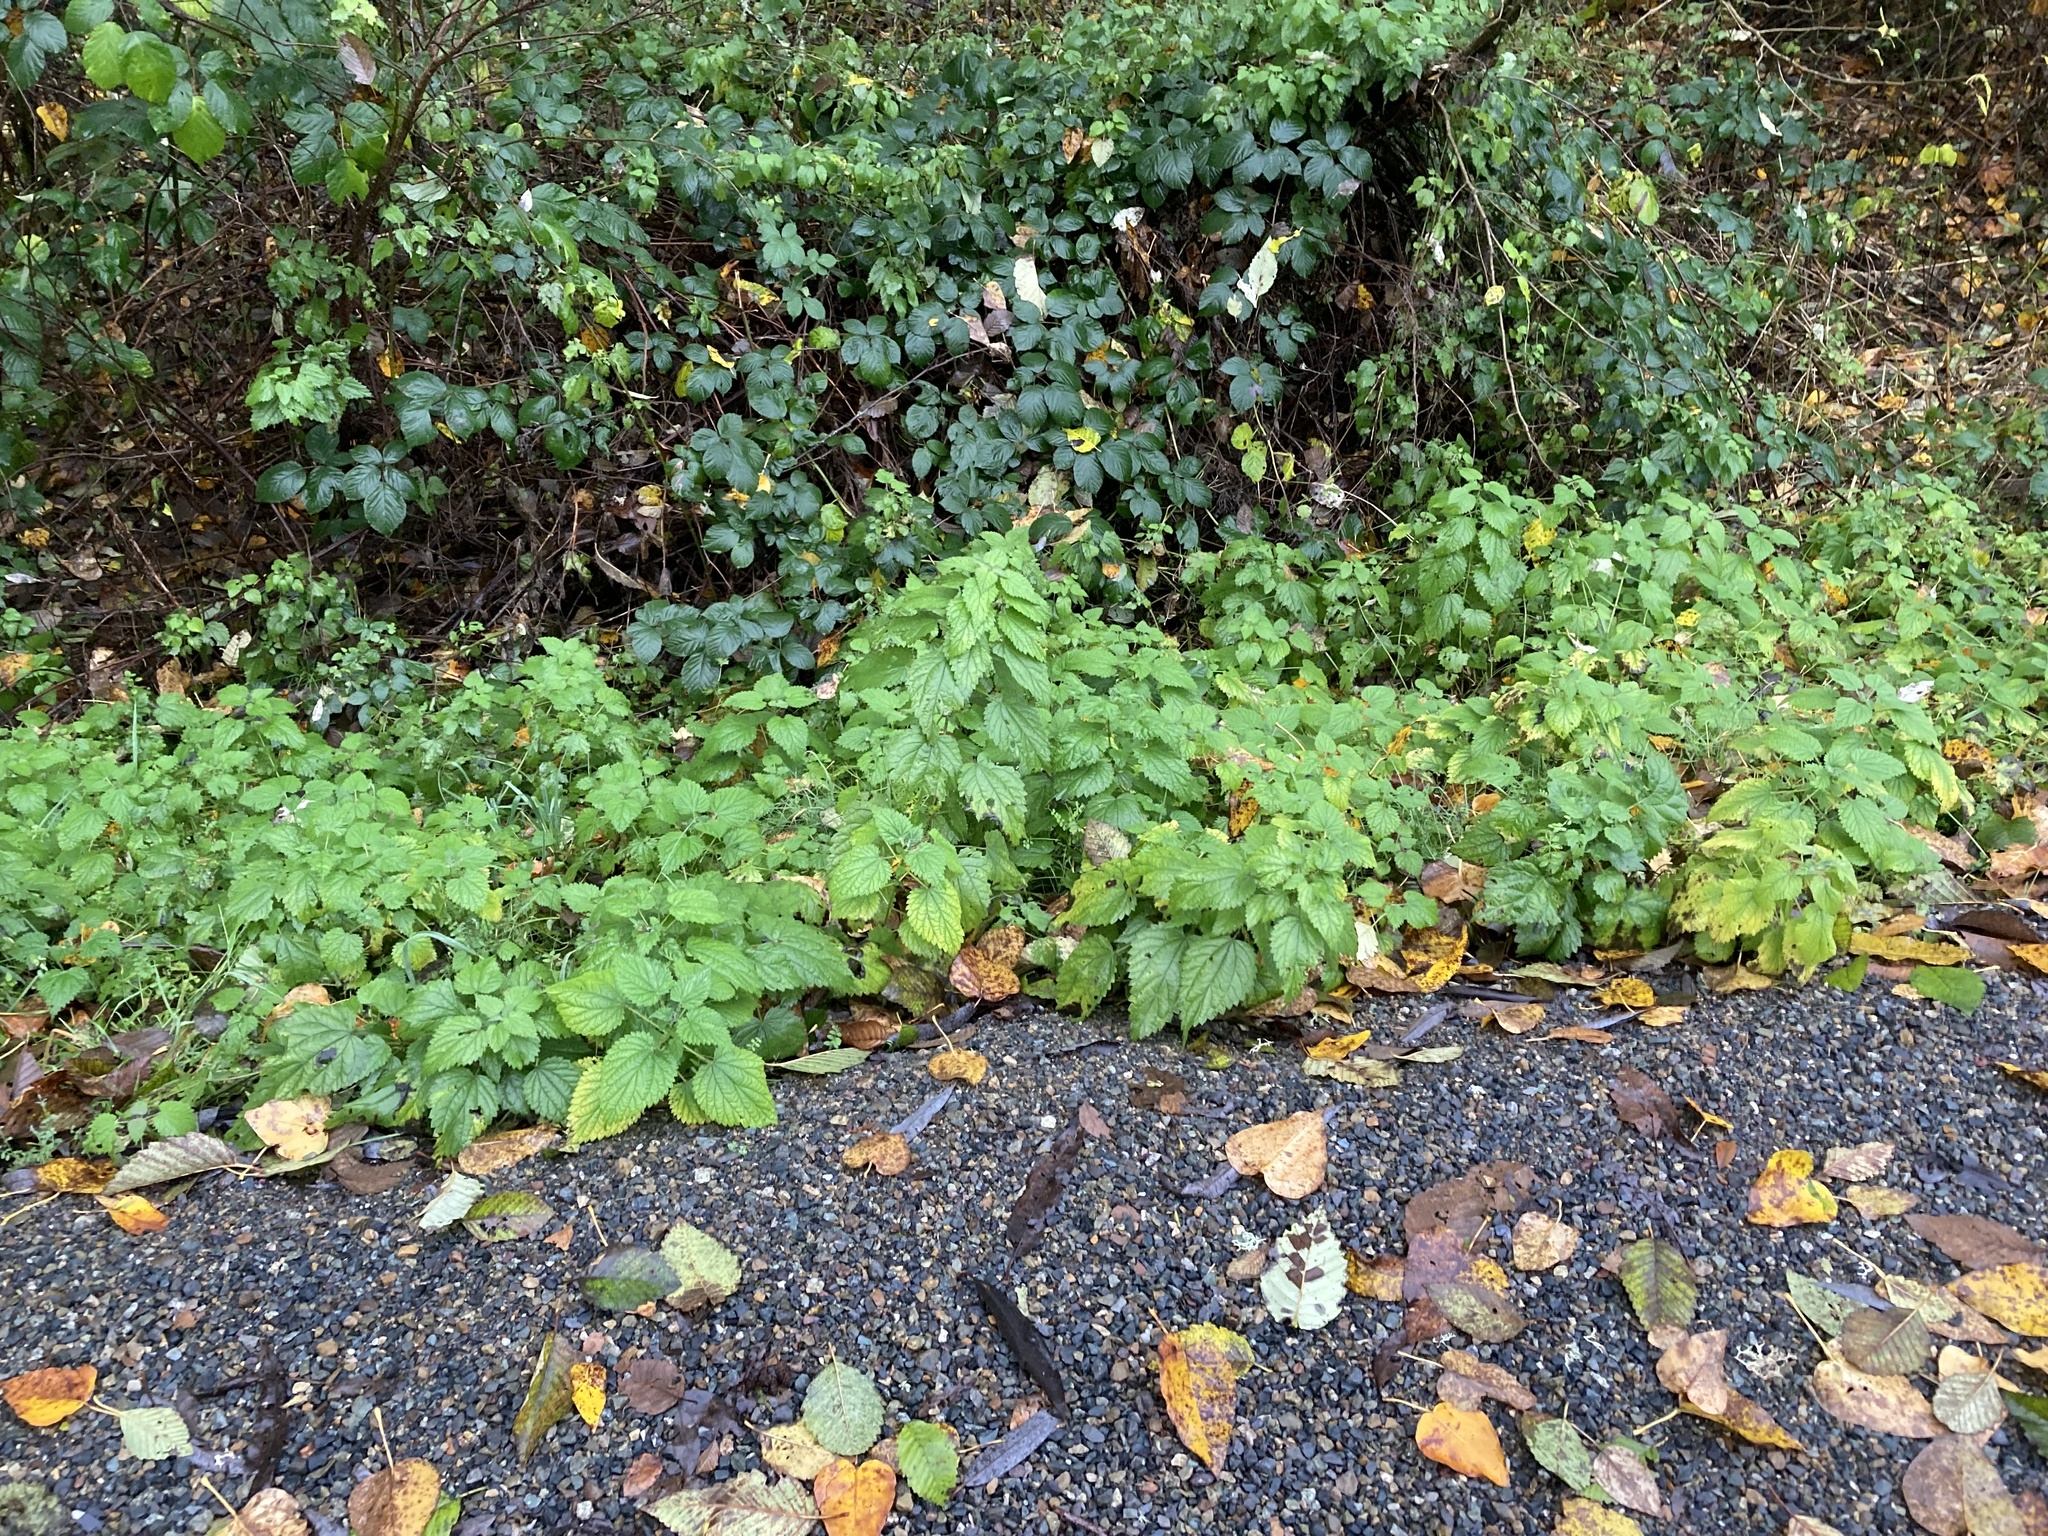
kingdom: Plantae
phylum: Tracheophyta
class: Magnoliopsida
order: Rosales
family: Urticaceae
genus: Urtica
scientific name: Urtica gracilis
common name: Slender stinging nettle
